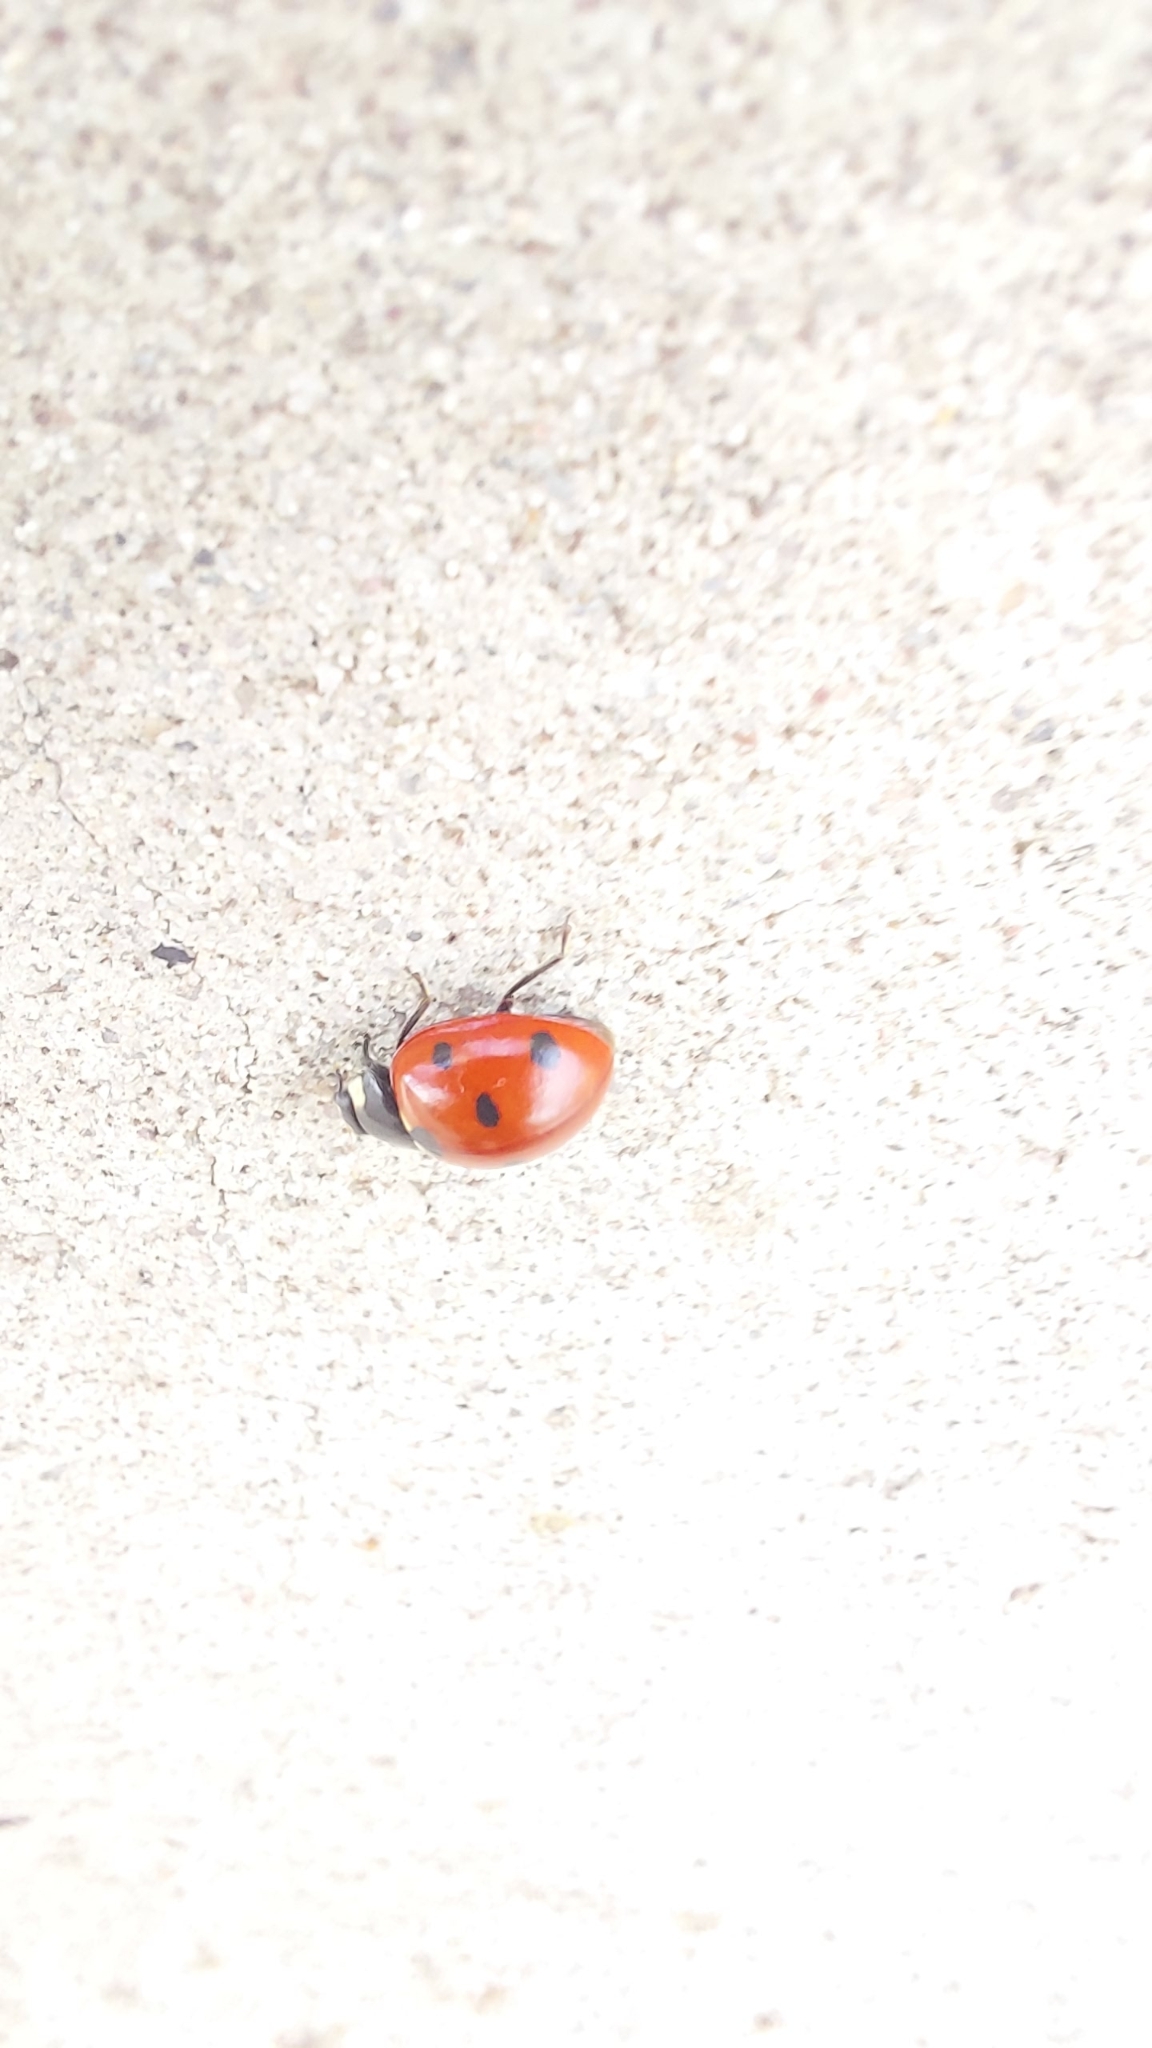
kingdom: Animalia
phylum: Arthropoda
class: Insecta
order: Coleoptera
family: Coccinellidae
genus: Coccinella
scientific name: Coccinella septempunctata
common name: Sevenspotted lady beetle
